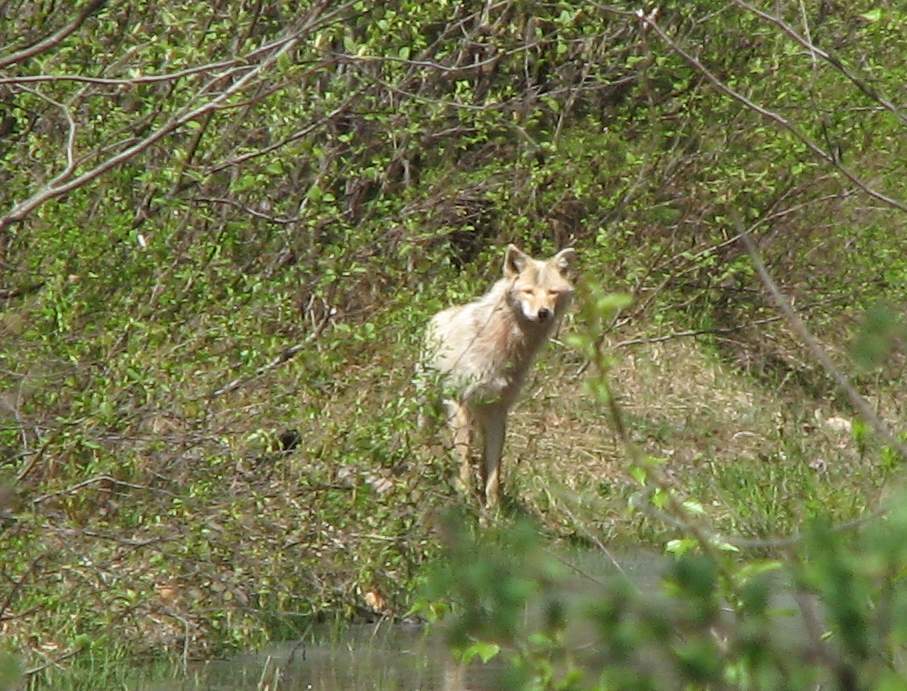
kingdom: Animalia
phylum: Chordata
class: Mammalia
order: Carnivora
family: Canidae
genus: Canis
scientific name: Canis latrans
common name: Coyote
